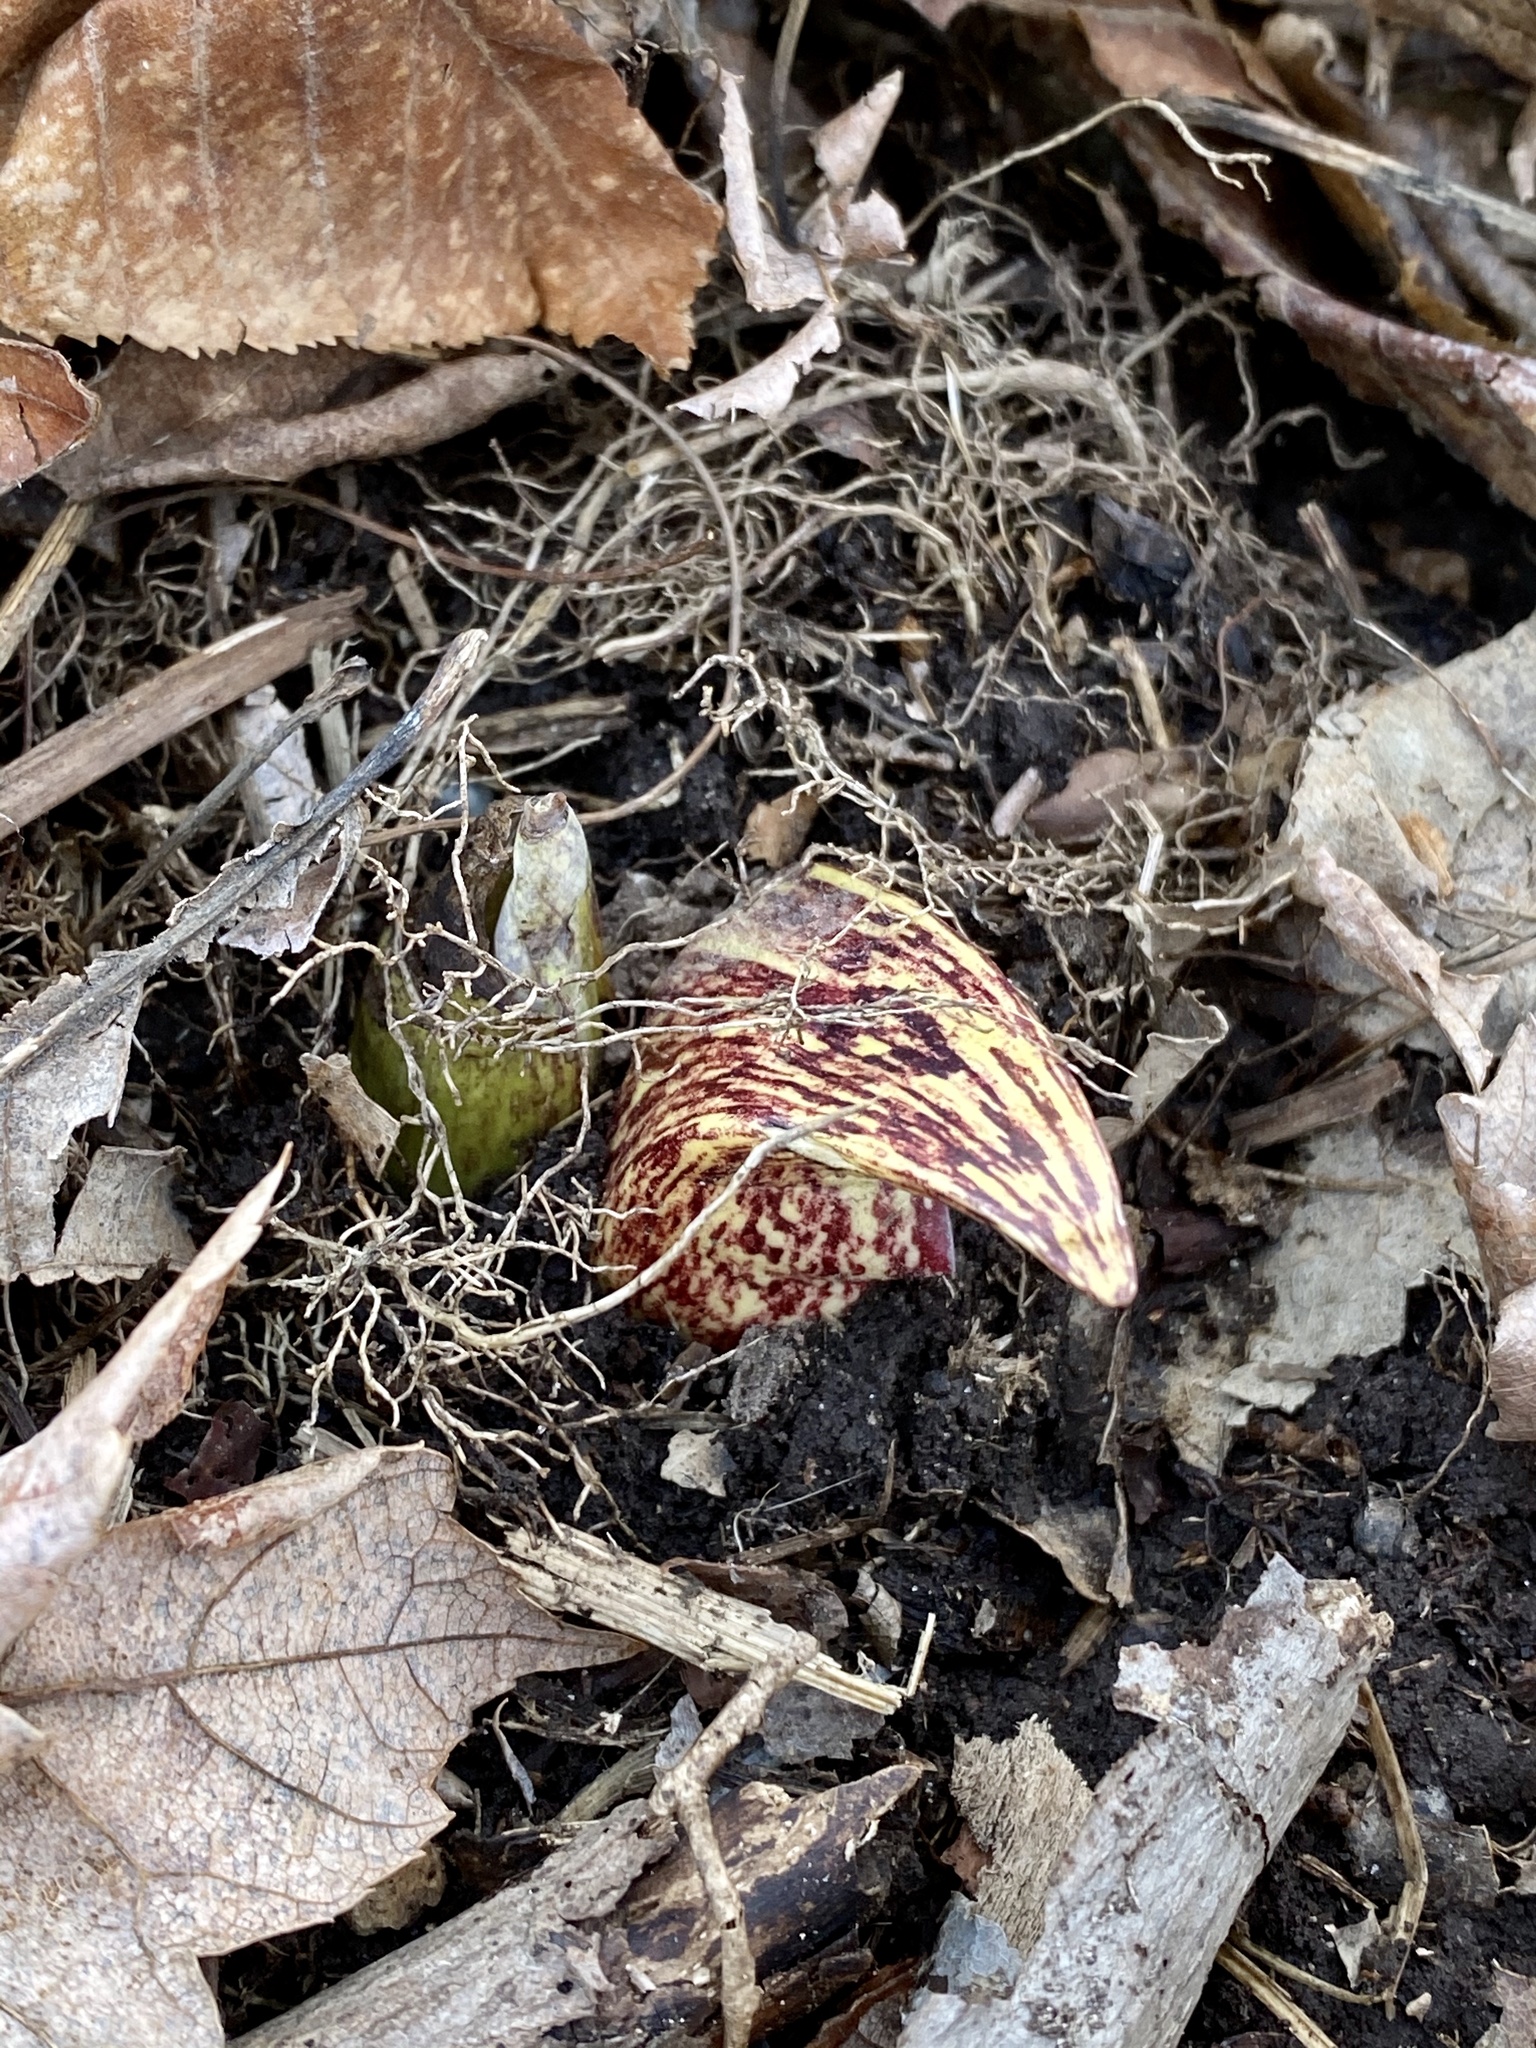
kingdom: Plantae
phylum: Tracheophyta
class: Liliopsida
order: Alismatales
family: Araceae
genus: Symplocarpus
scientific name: Symplocarpus foetidus
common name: Eastern skunk cabbage
